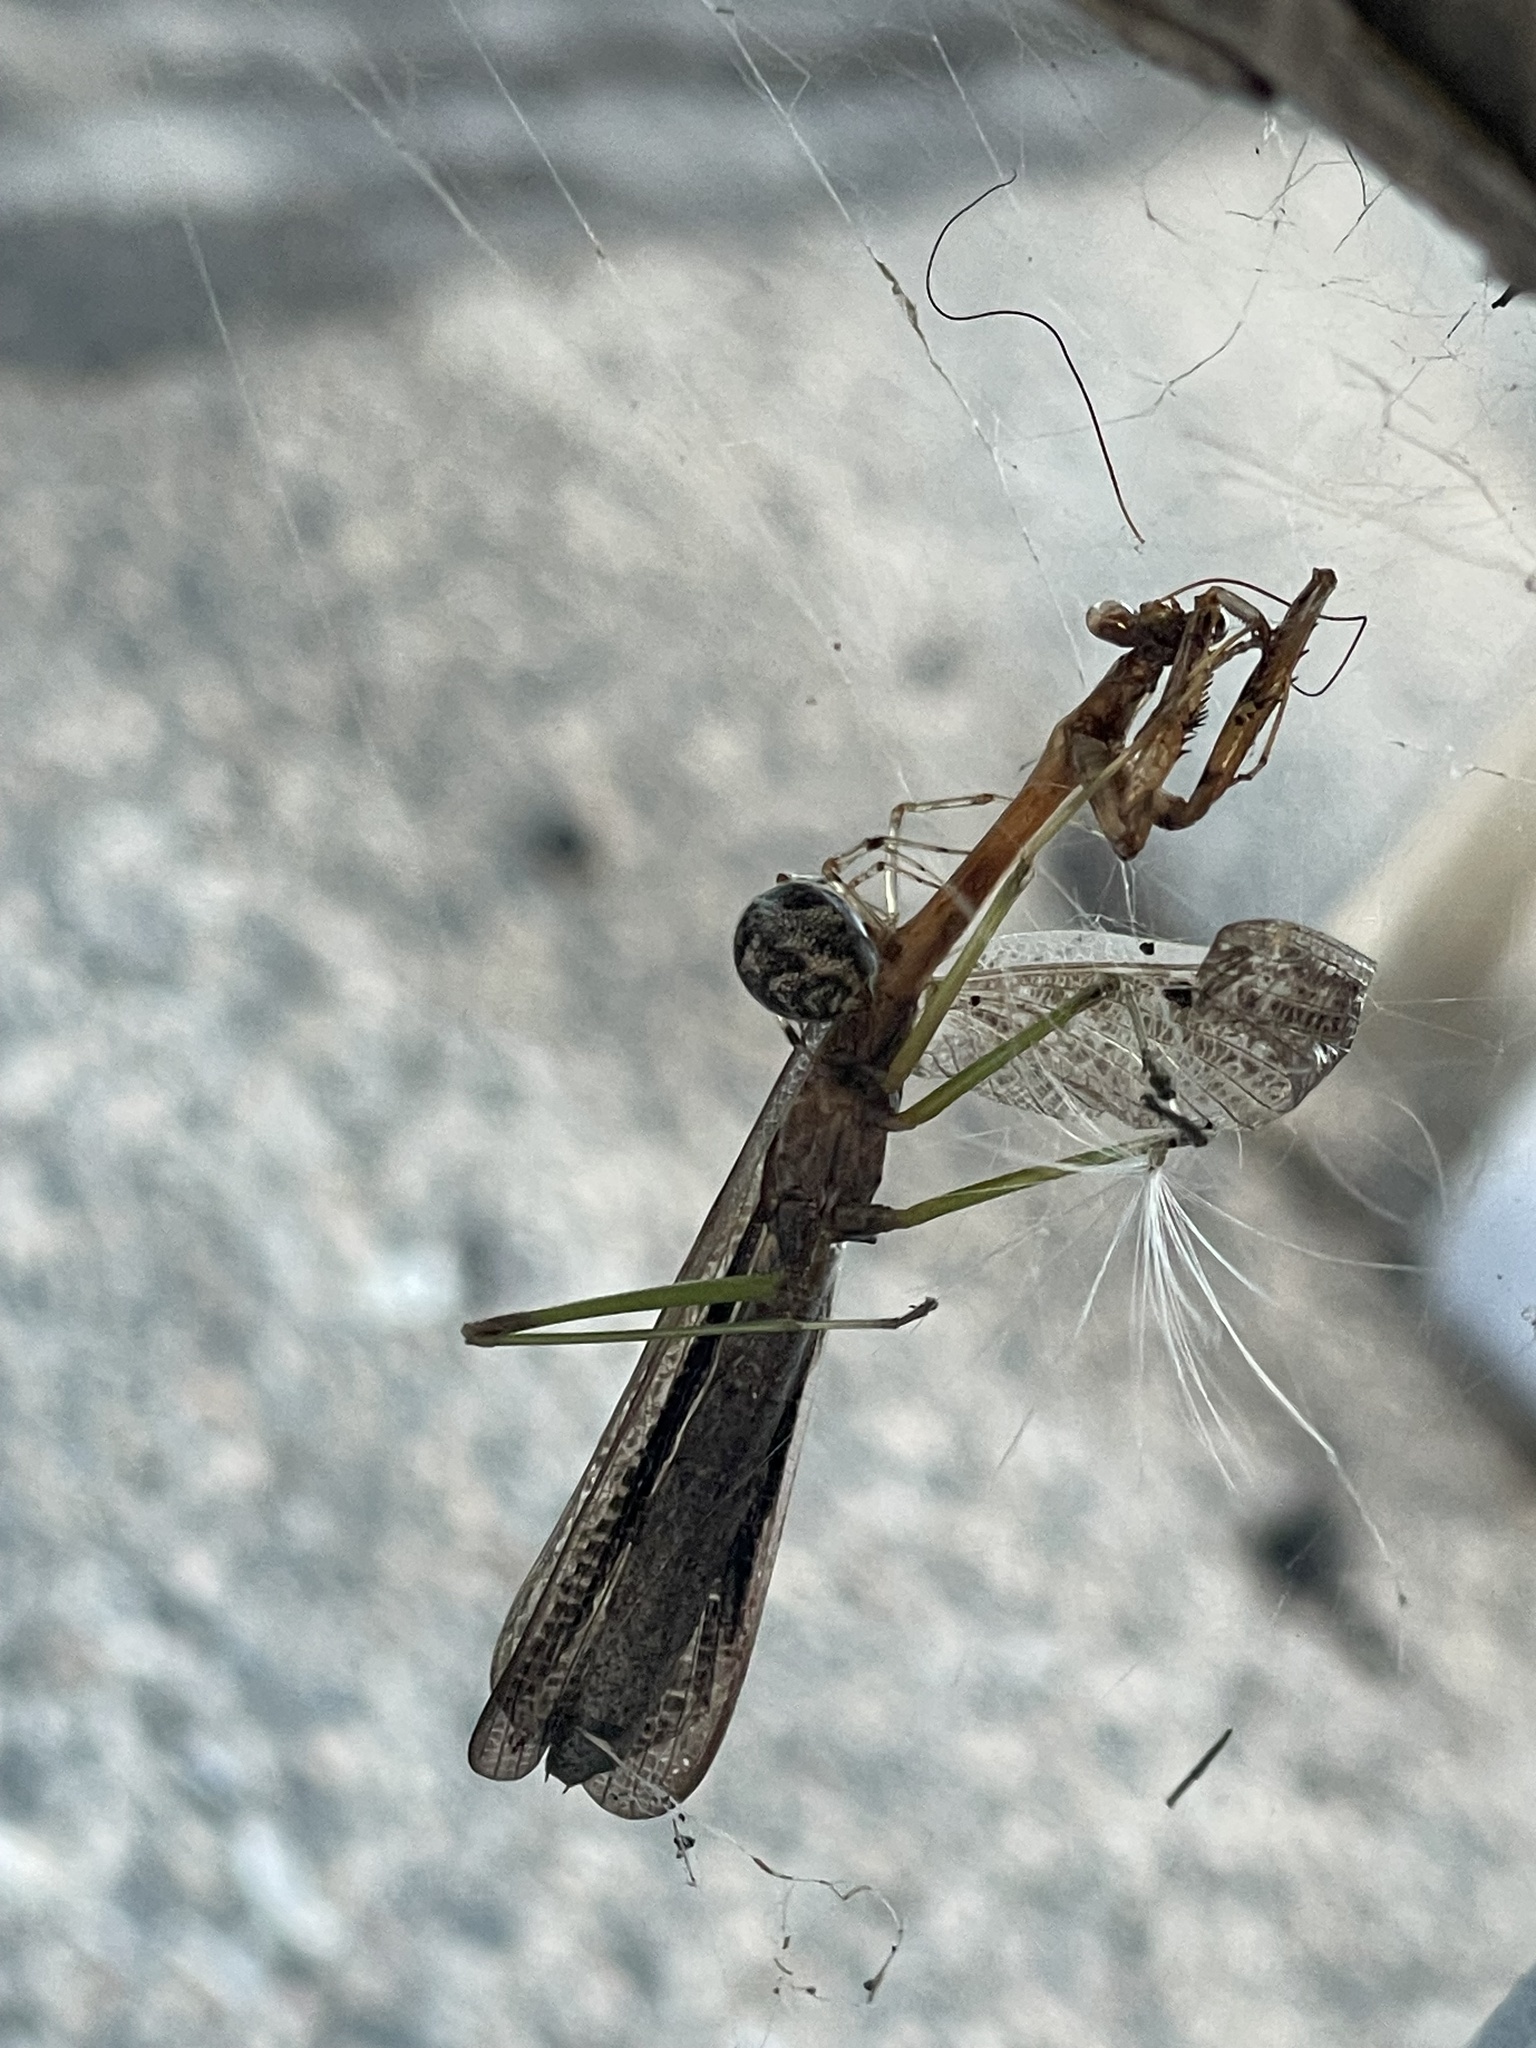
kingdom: Animalia
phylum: Arthropoda
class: Insecta
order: Mantodea
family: Mantidae
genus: Stagmomantis
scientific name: Stagmomantis carolina
